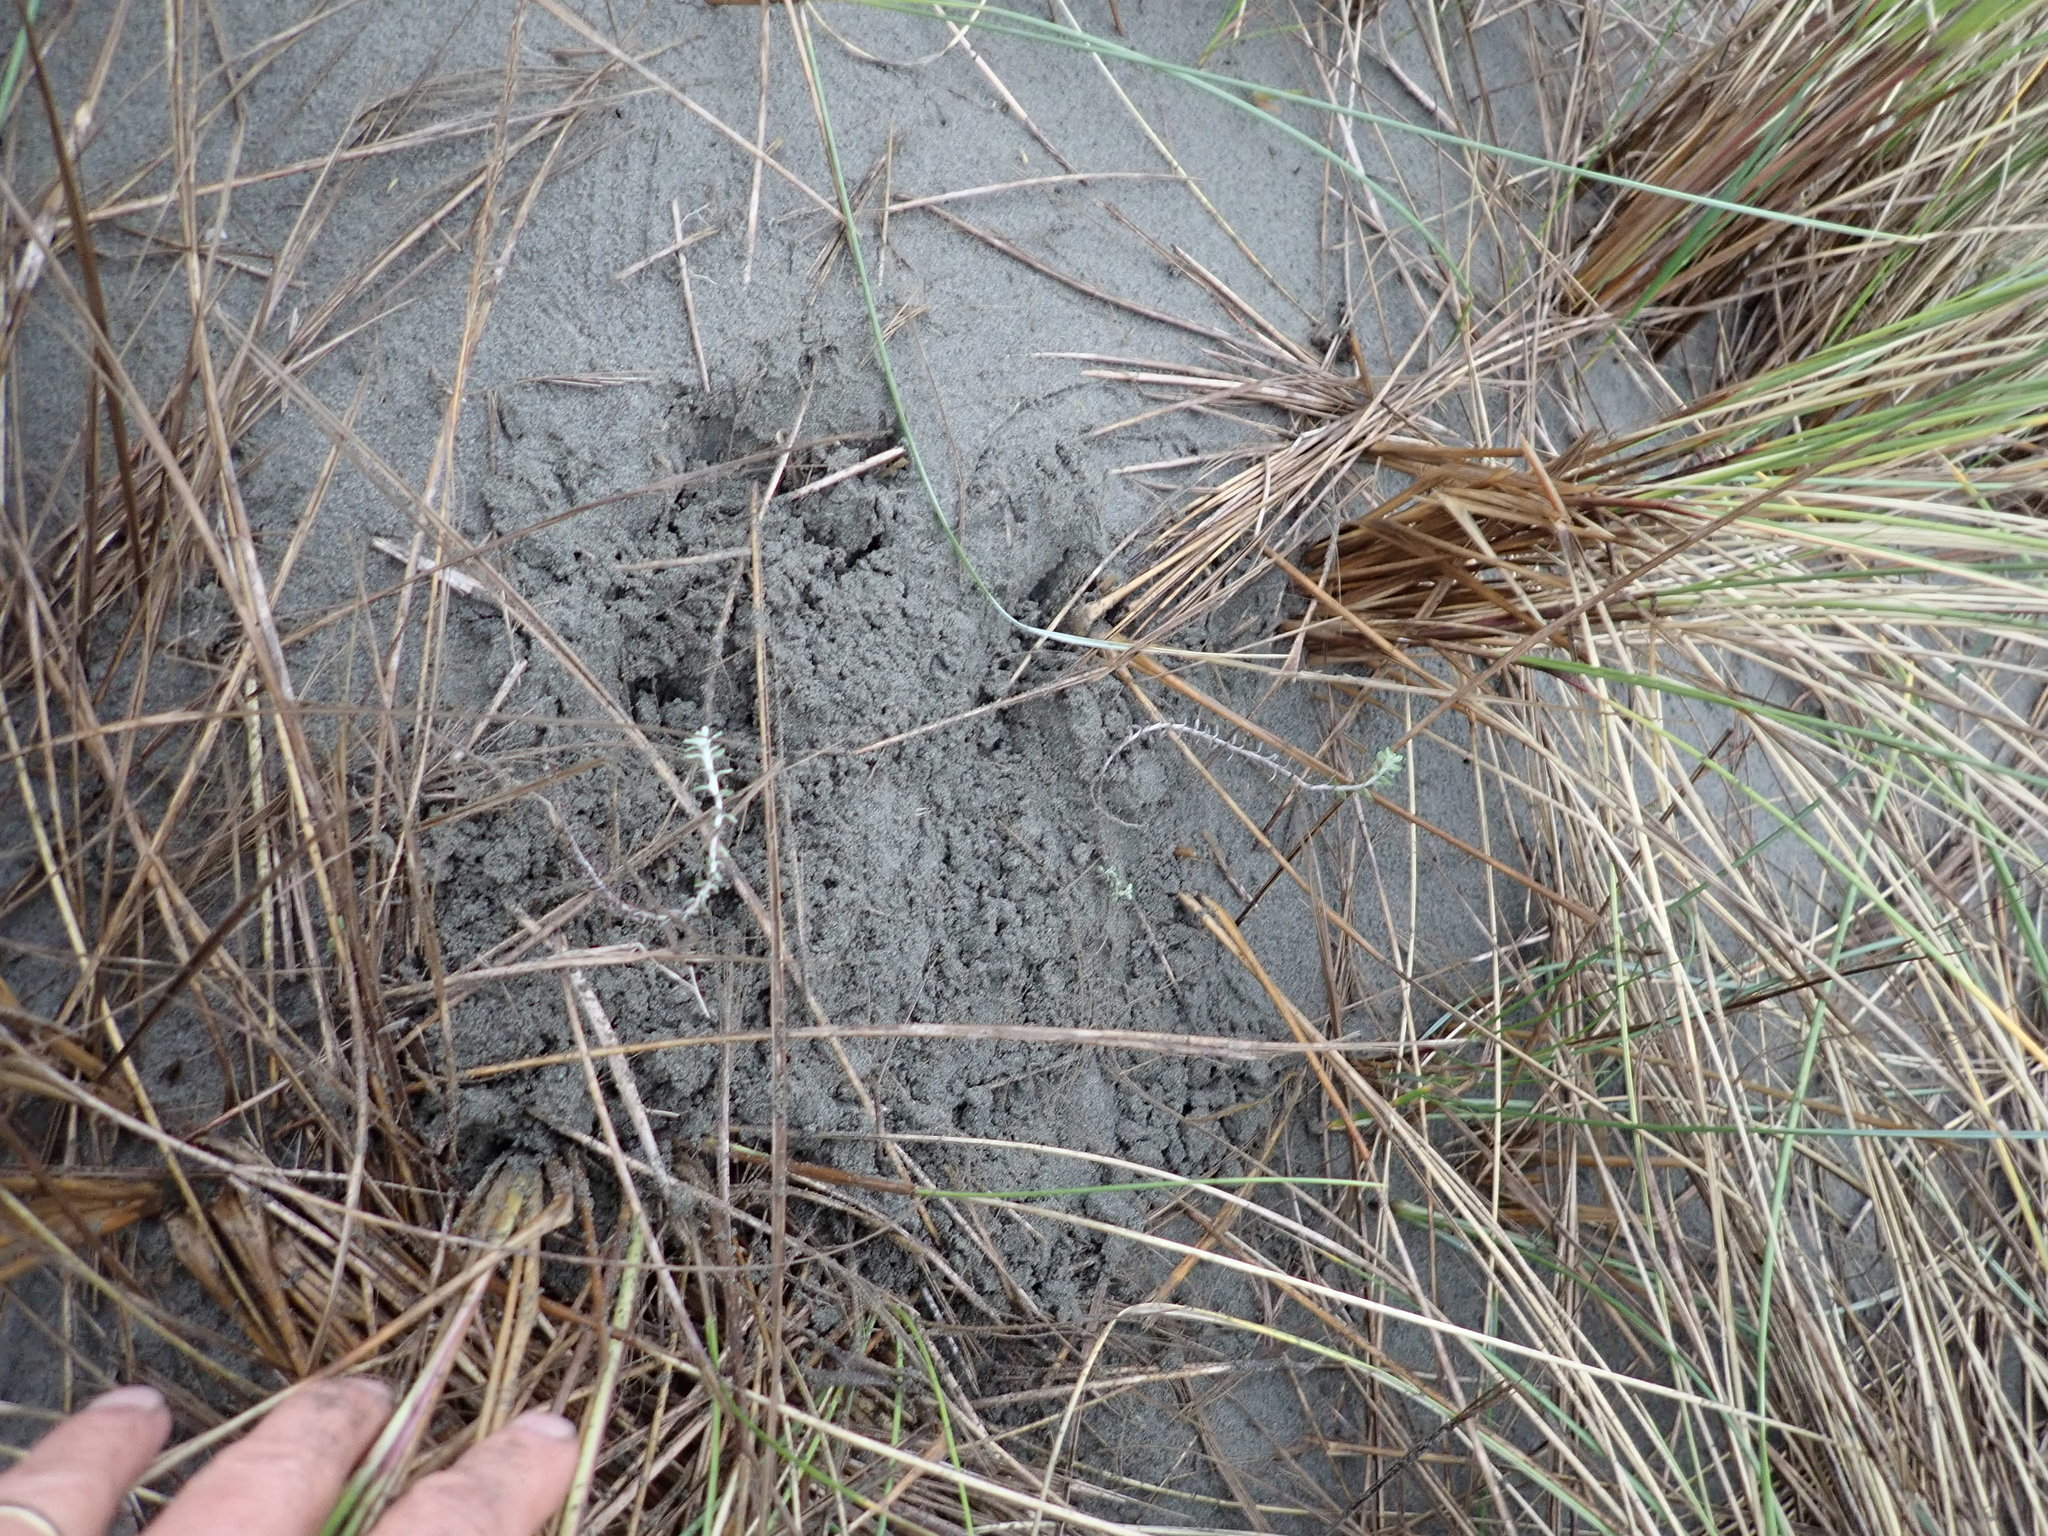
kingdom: Plantae
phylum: Tracheophyta
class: Magnoliopsida
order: Asterales
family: Asteraceae
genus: Ozothamnus
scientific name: Ozothamnus leptophyllus
